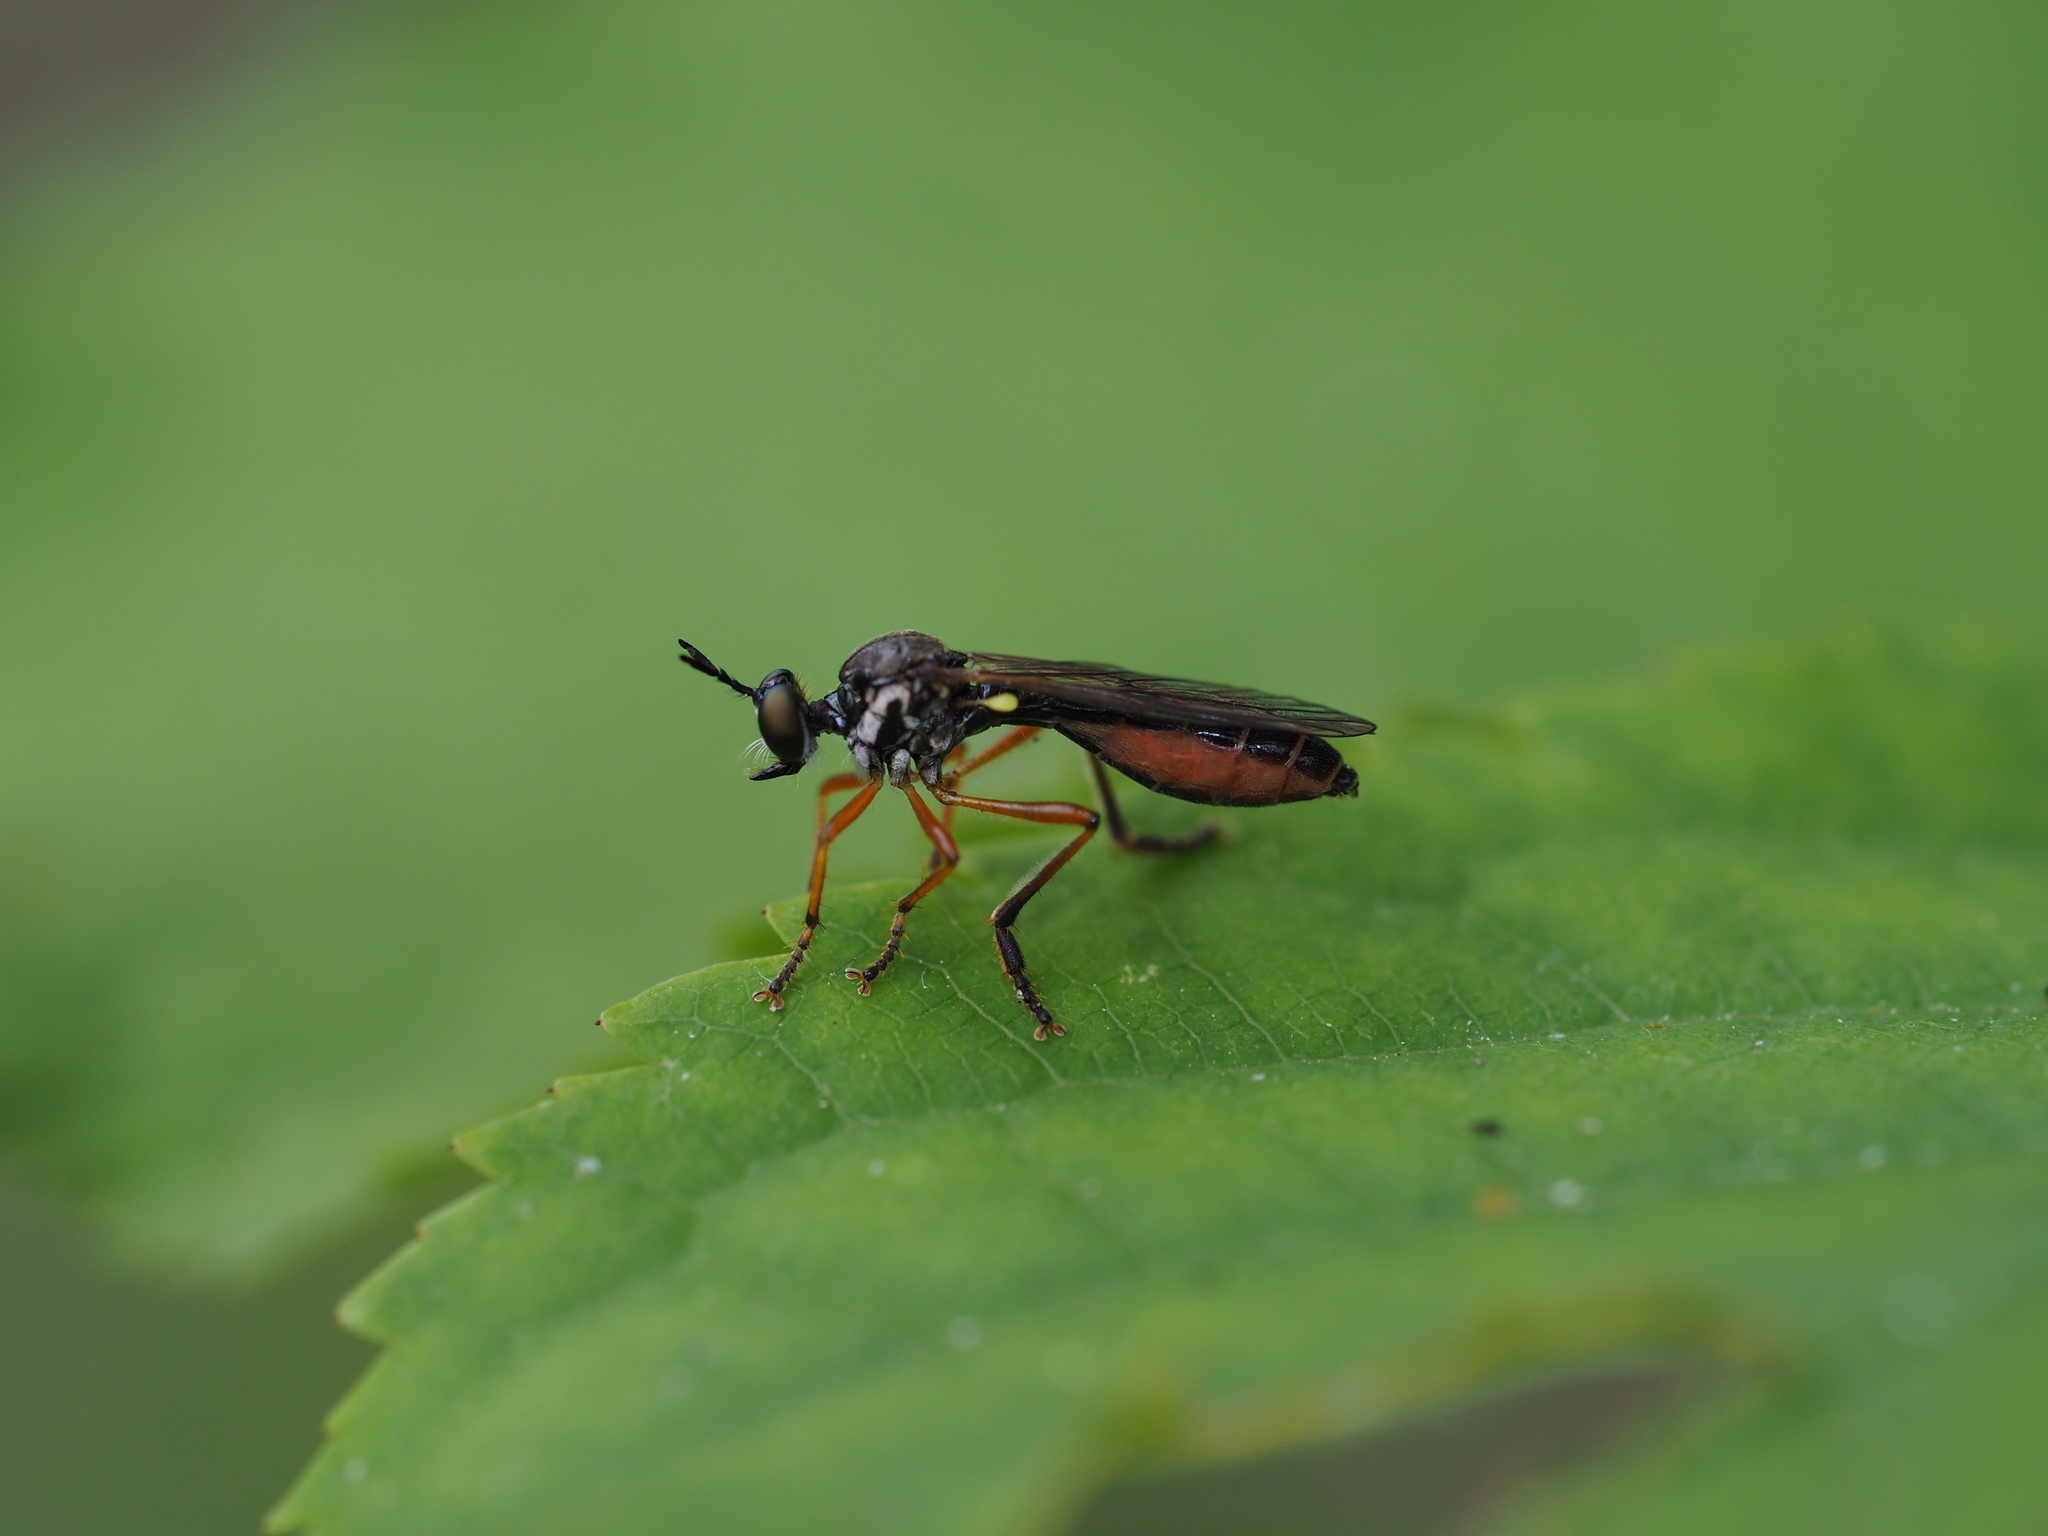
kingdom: Animalia
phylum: Arthropoda
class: Insecta
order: Diptera
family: Asilidae
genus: Dioctria
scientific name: Dioctria hyalipennis
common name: Stripe-legged robberfly
